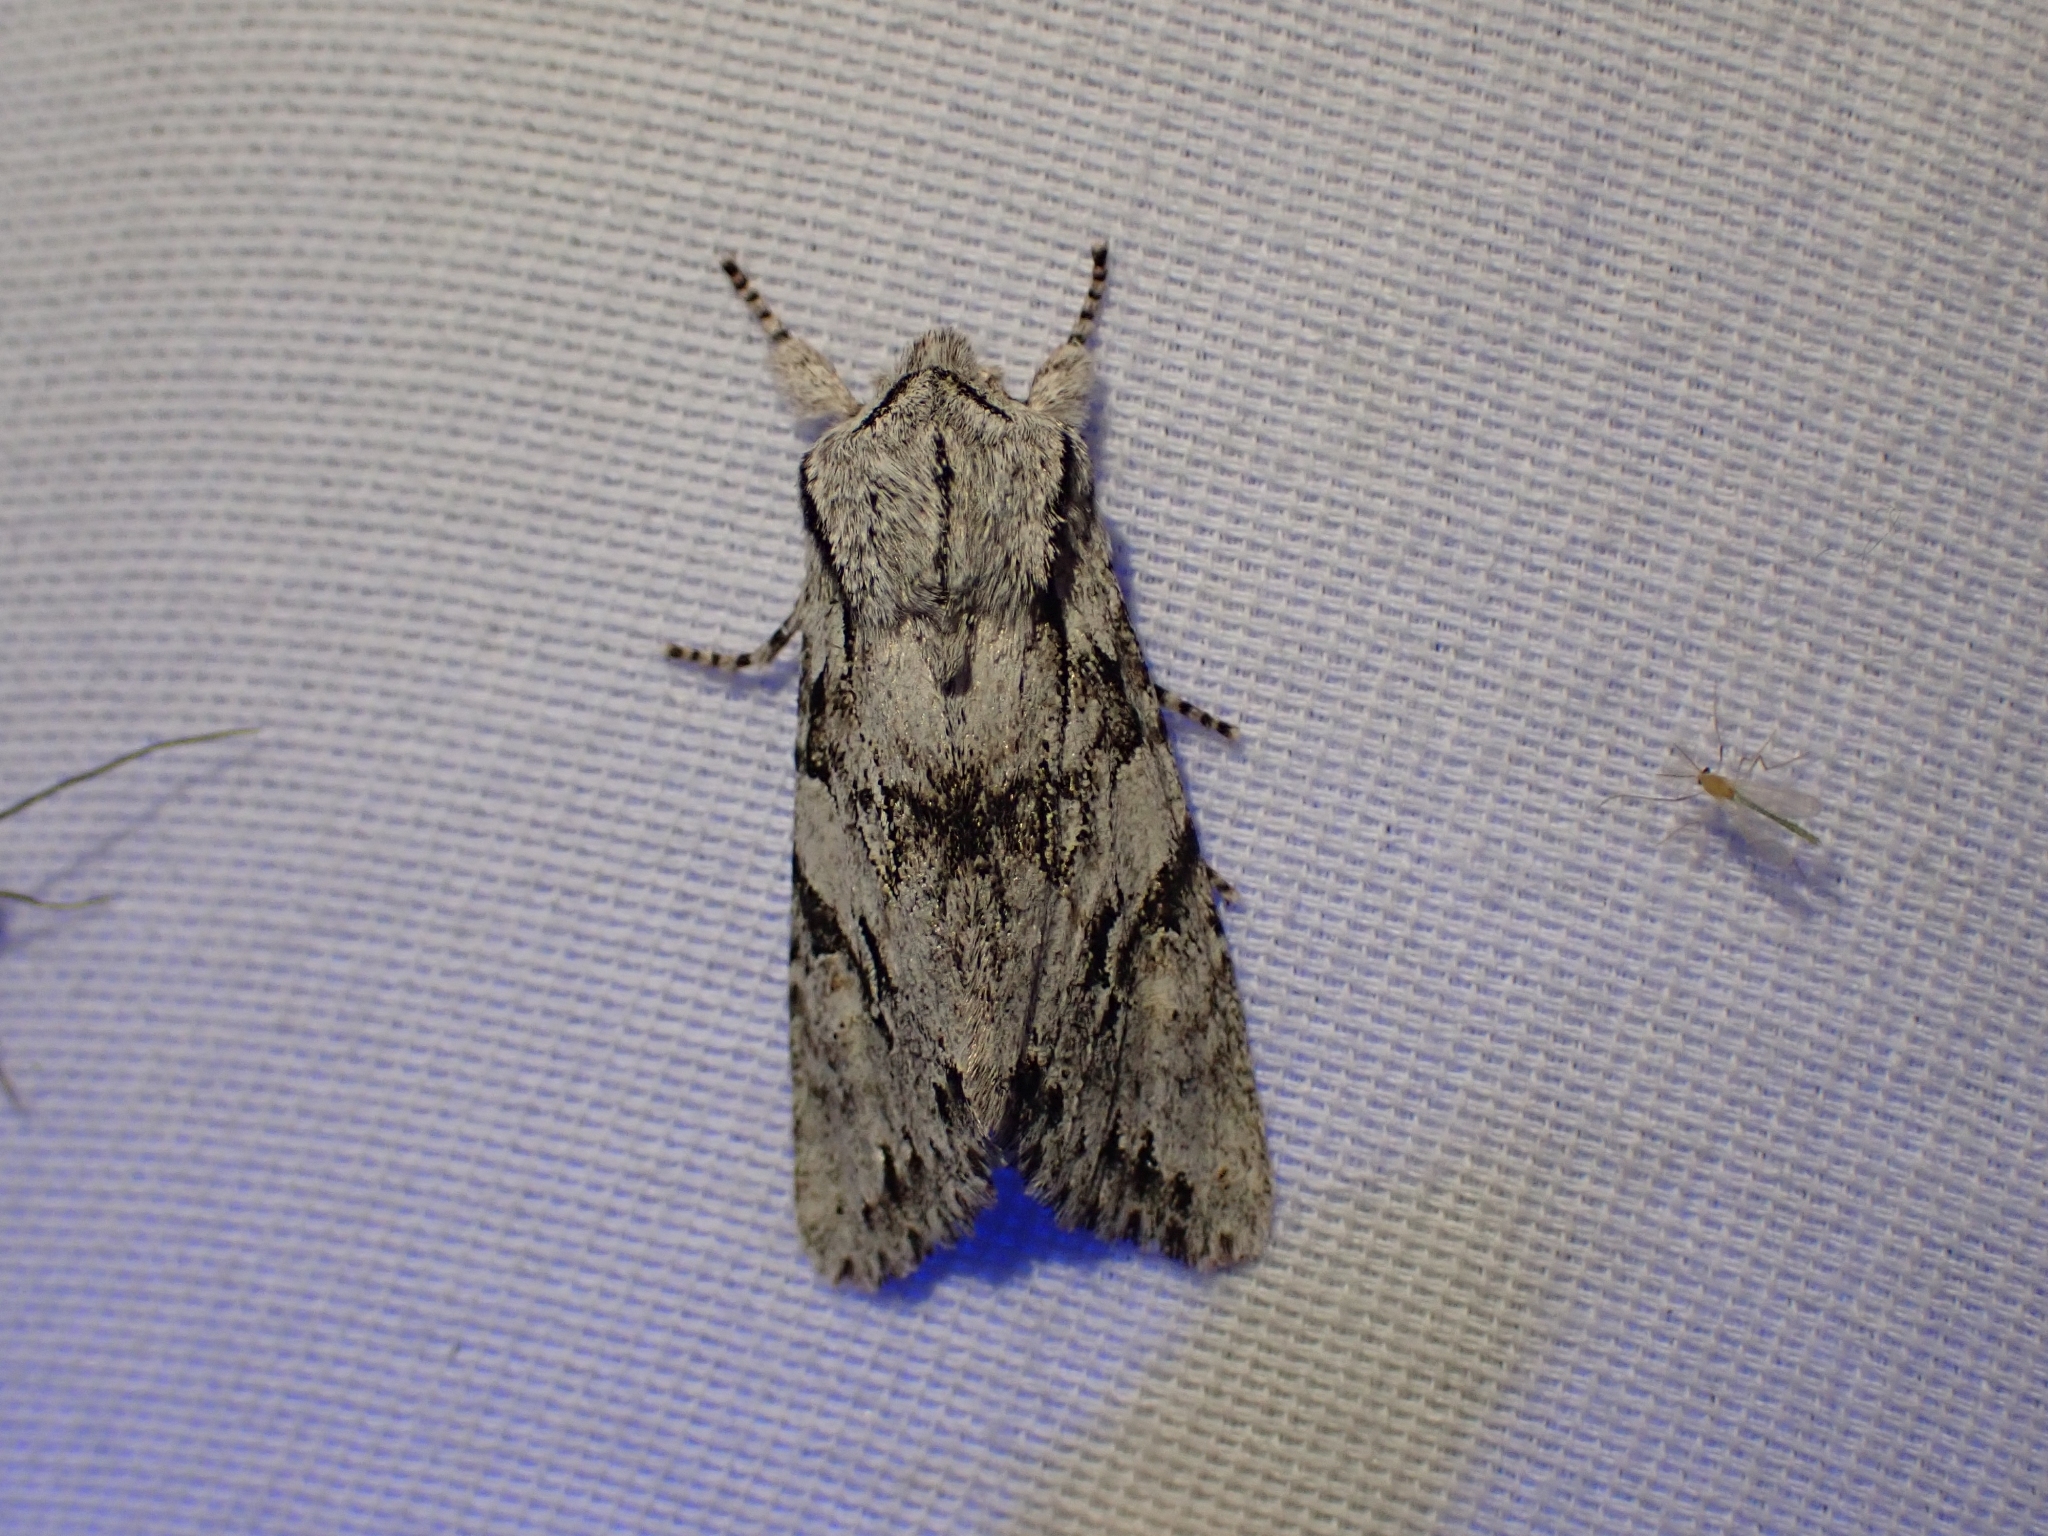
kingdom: Animalia
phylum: Arthropoda
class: Insecta
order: Lepidoptera
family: Noctuidae
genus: Egira
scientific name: Egira simplex
